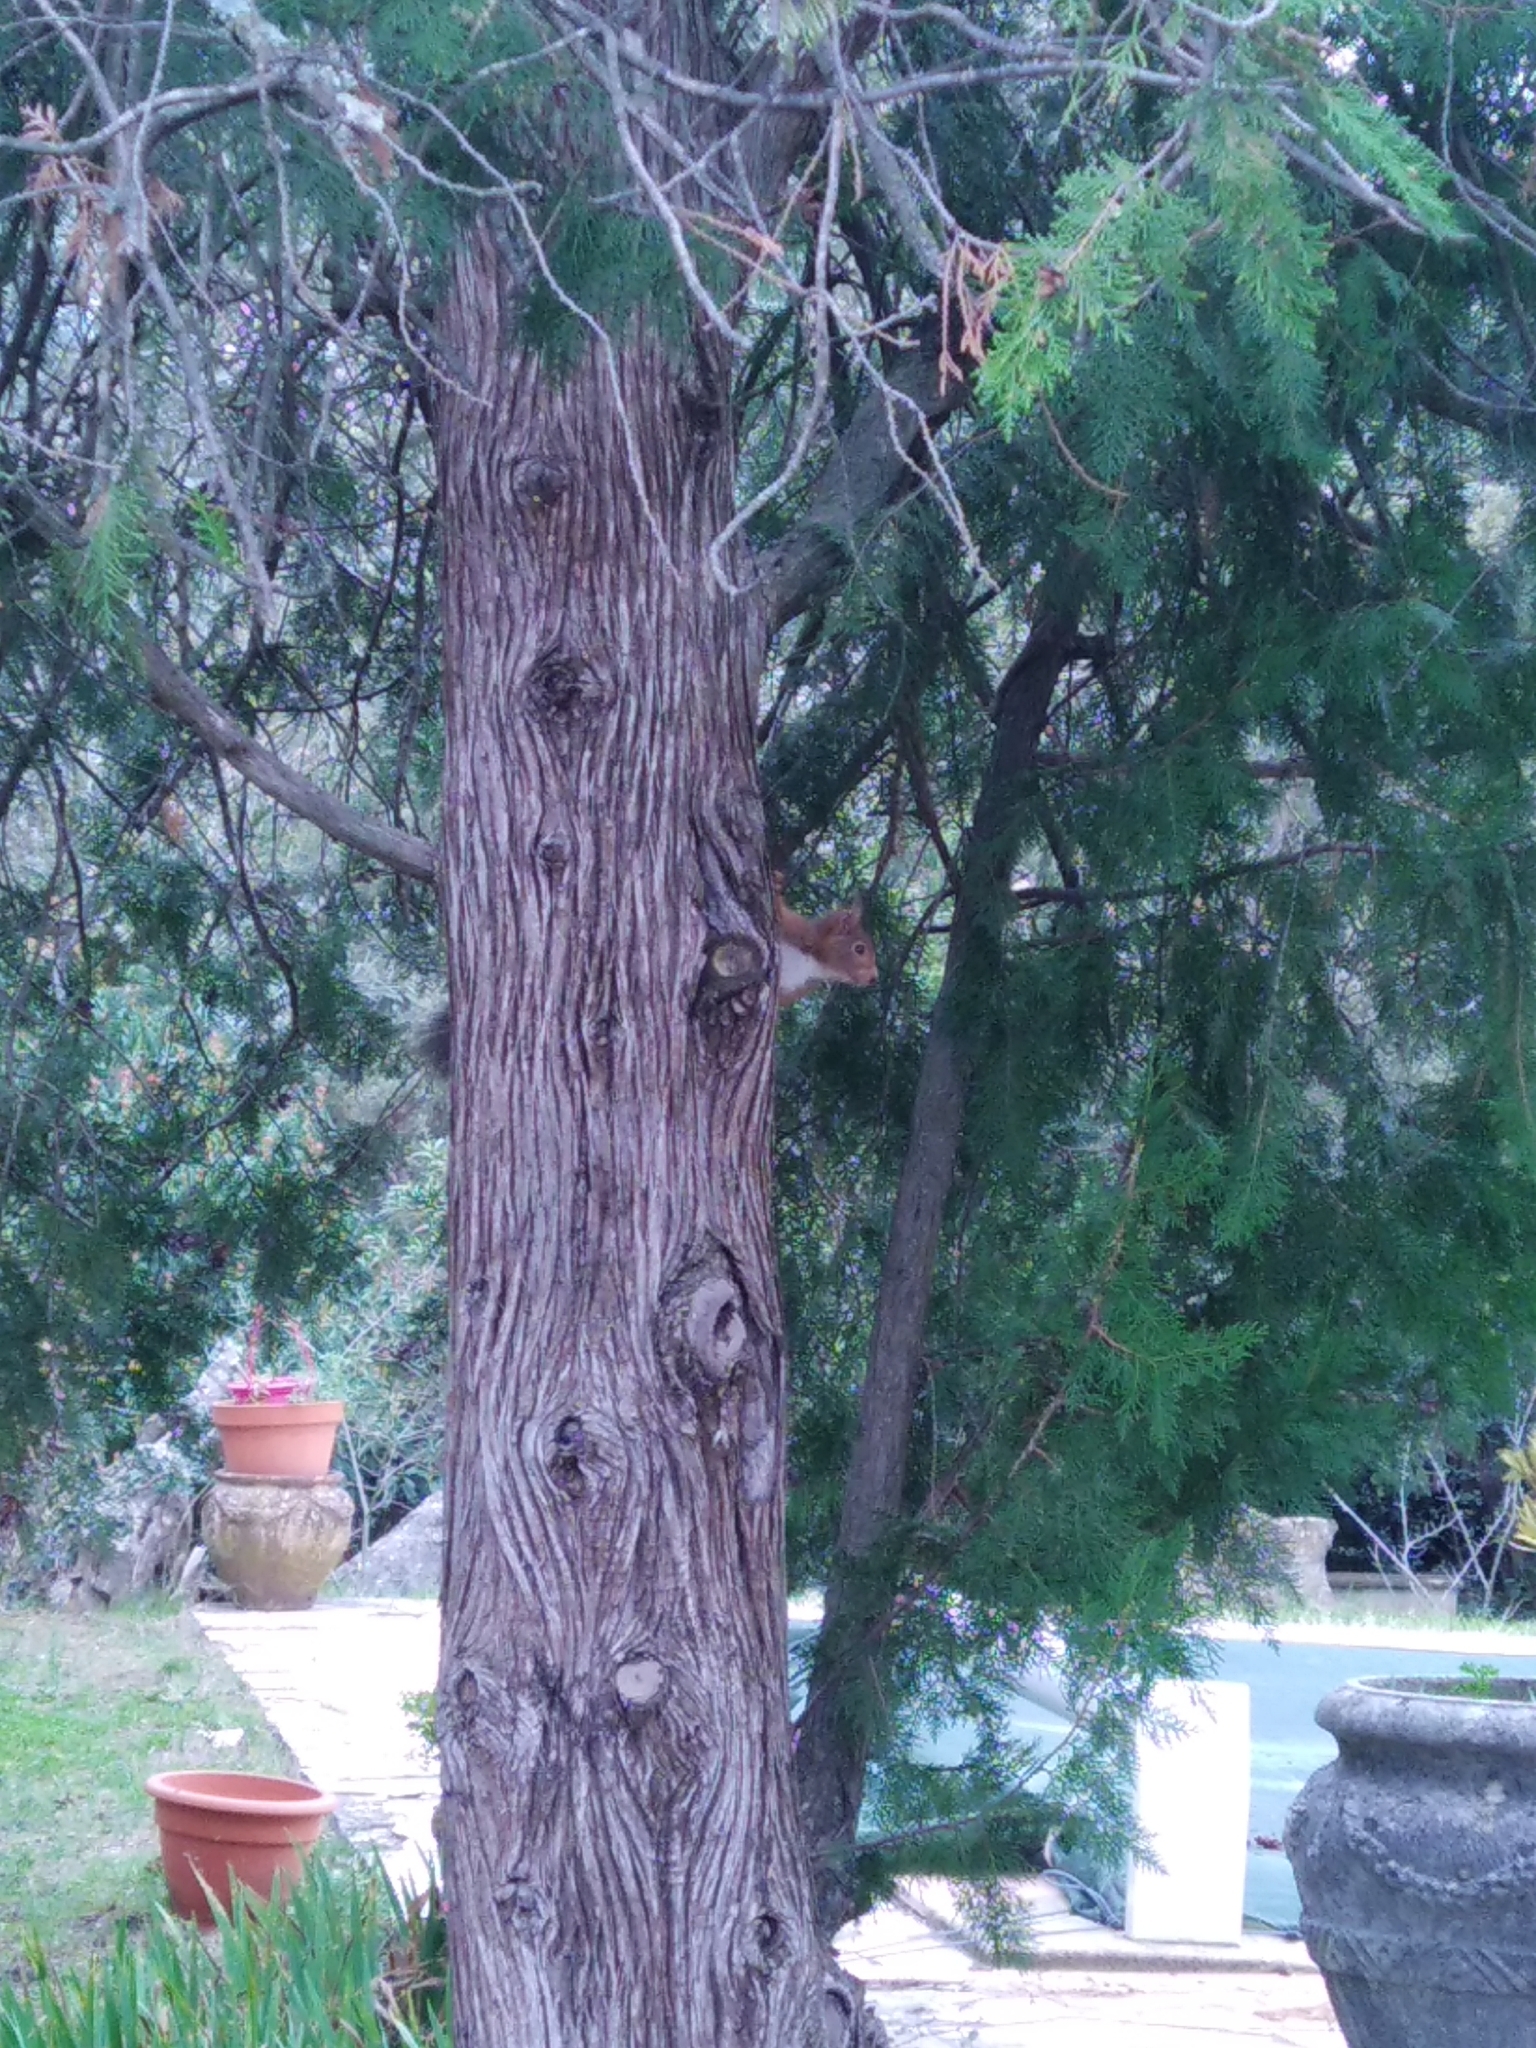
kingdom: Animalia
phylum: Chordata
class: Mammalia
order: Rodentia
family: Sciuridae
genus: Sciurus
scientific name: Sciurus vulgaris
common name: Eurasian red squirrel
